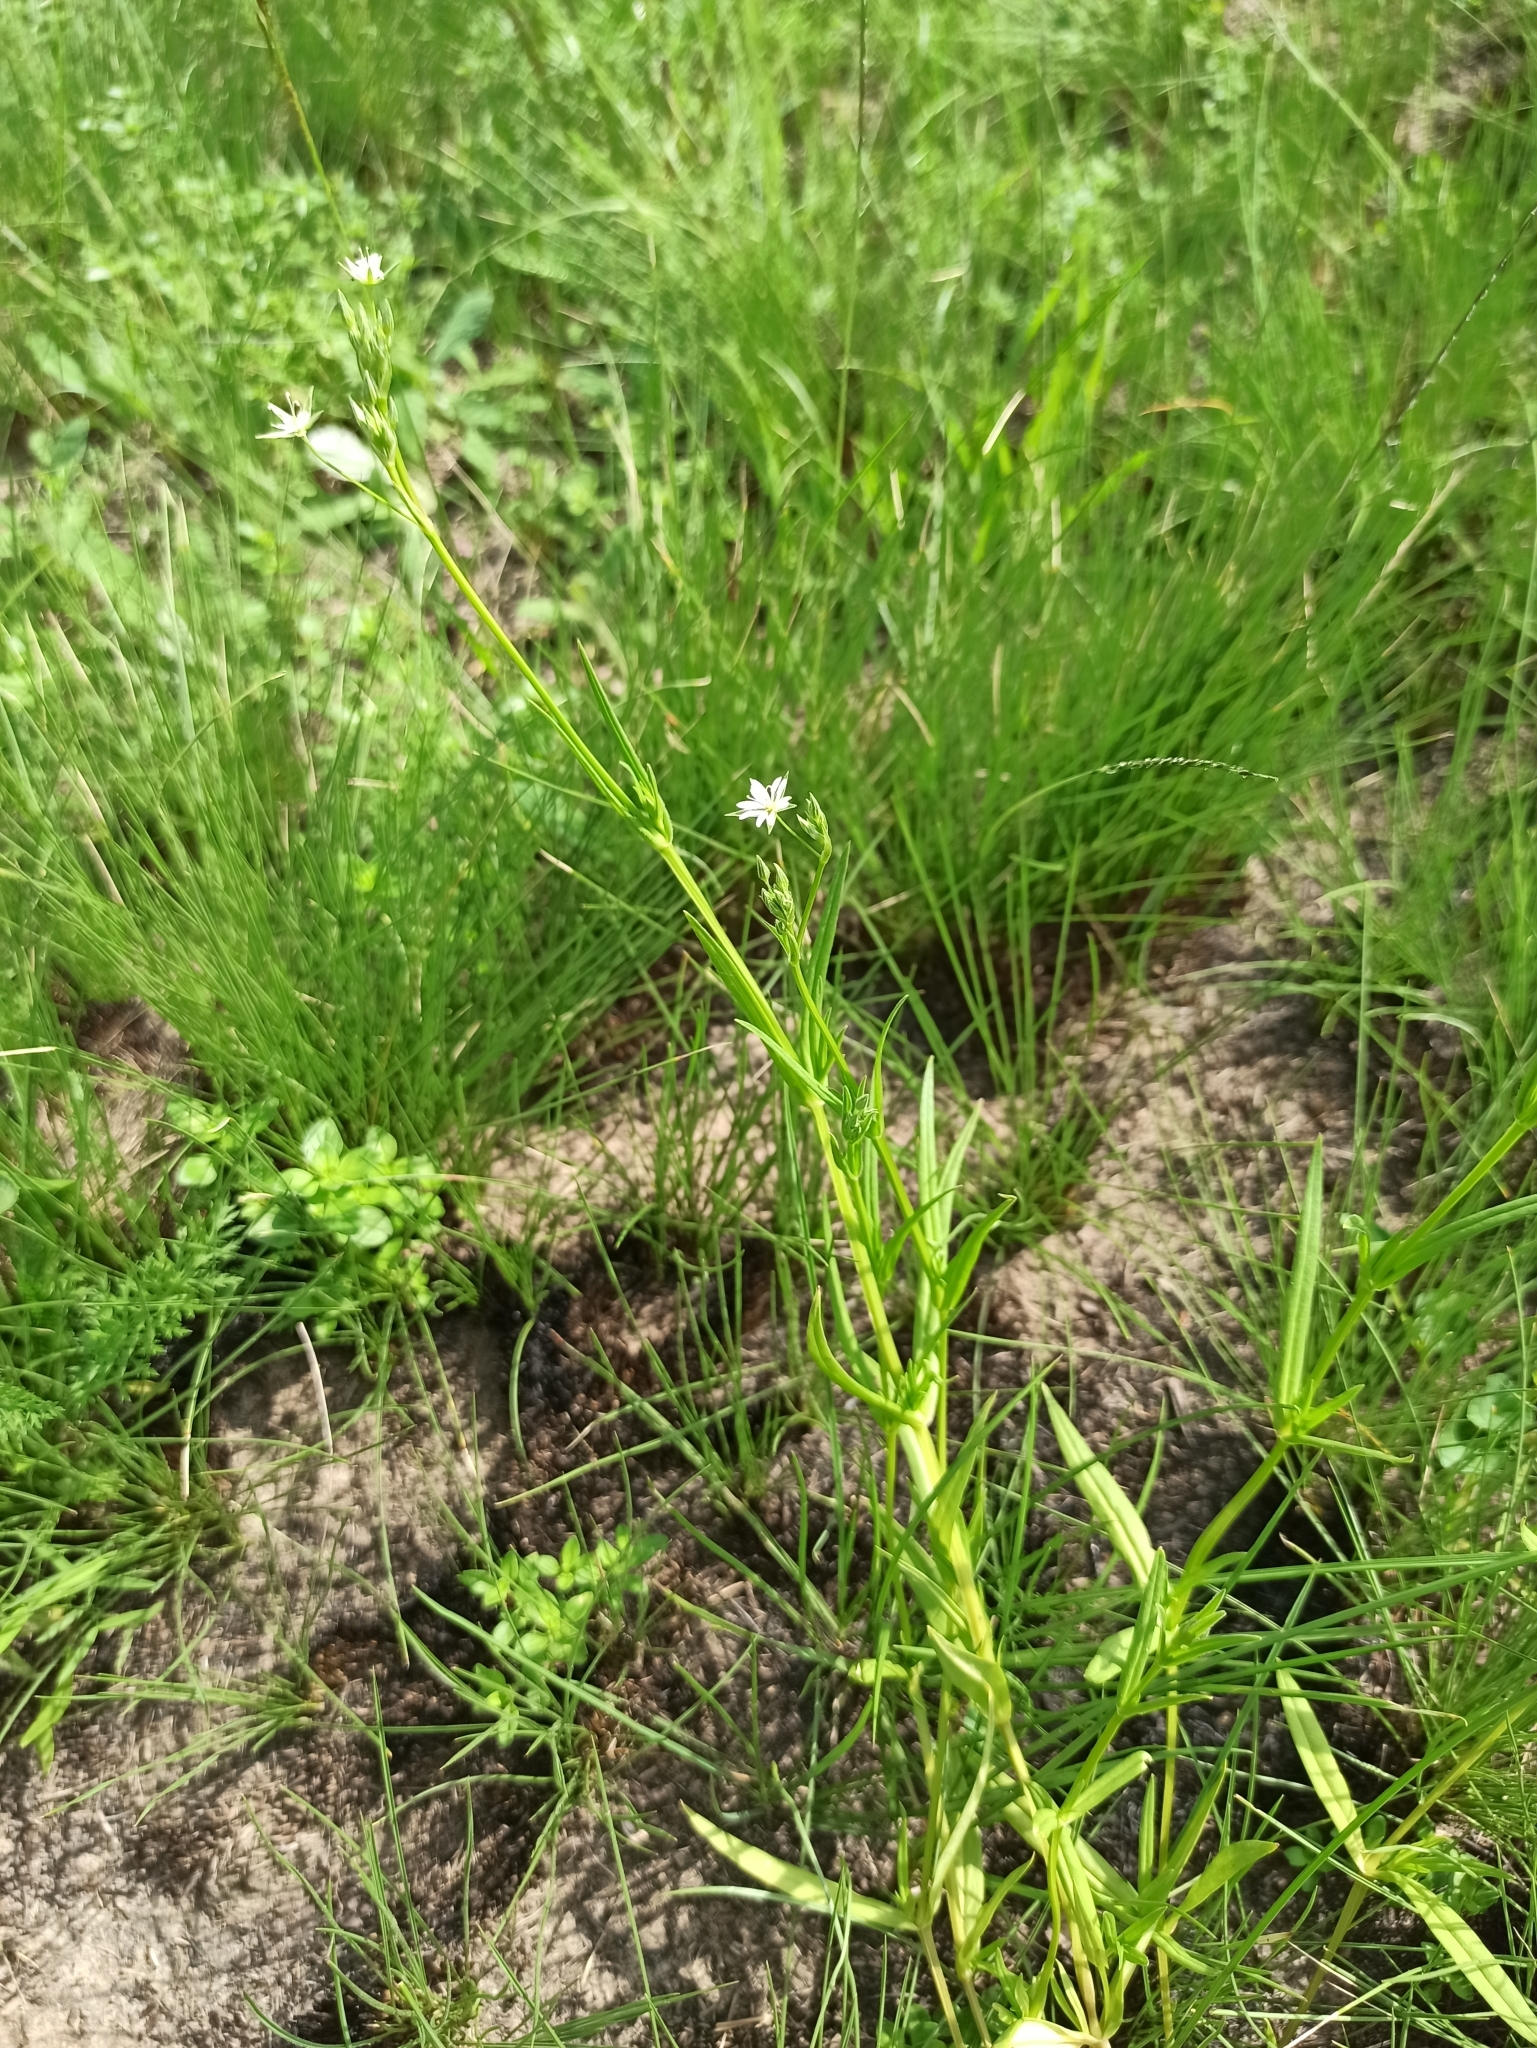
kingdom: Plantae
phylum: Tracheophyta
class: Magnoliopsida
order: Caryophyllales
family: Caryophyllaceae
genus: Stellaria
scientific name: Stellaria graminea
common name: Grass-like starwort
